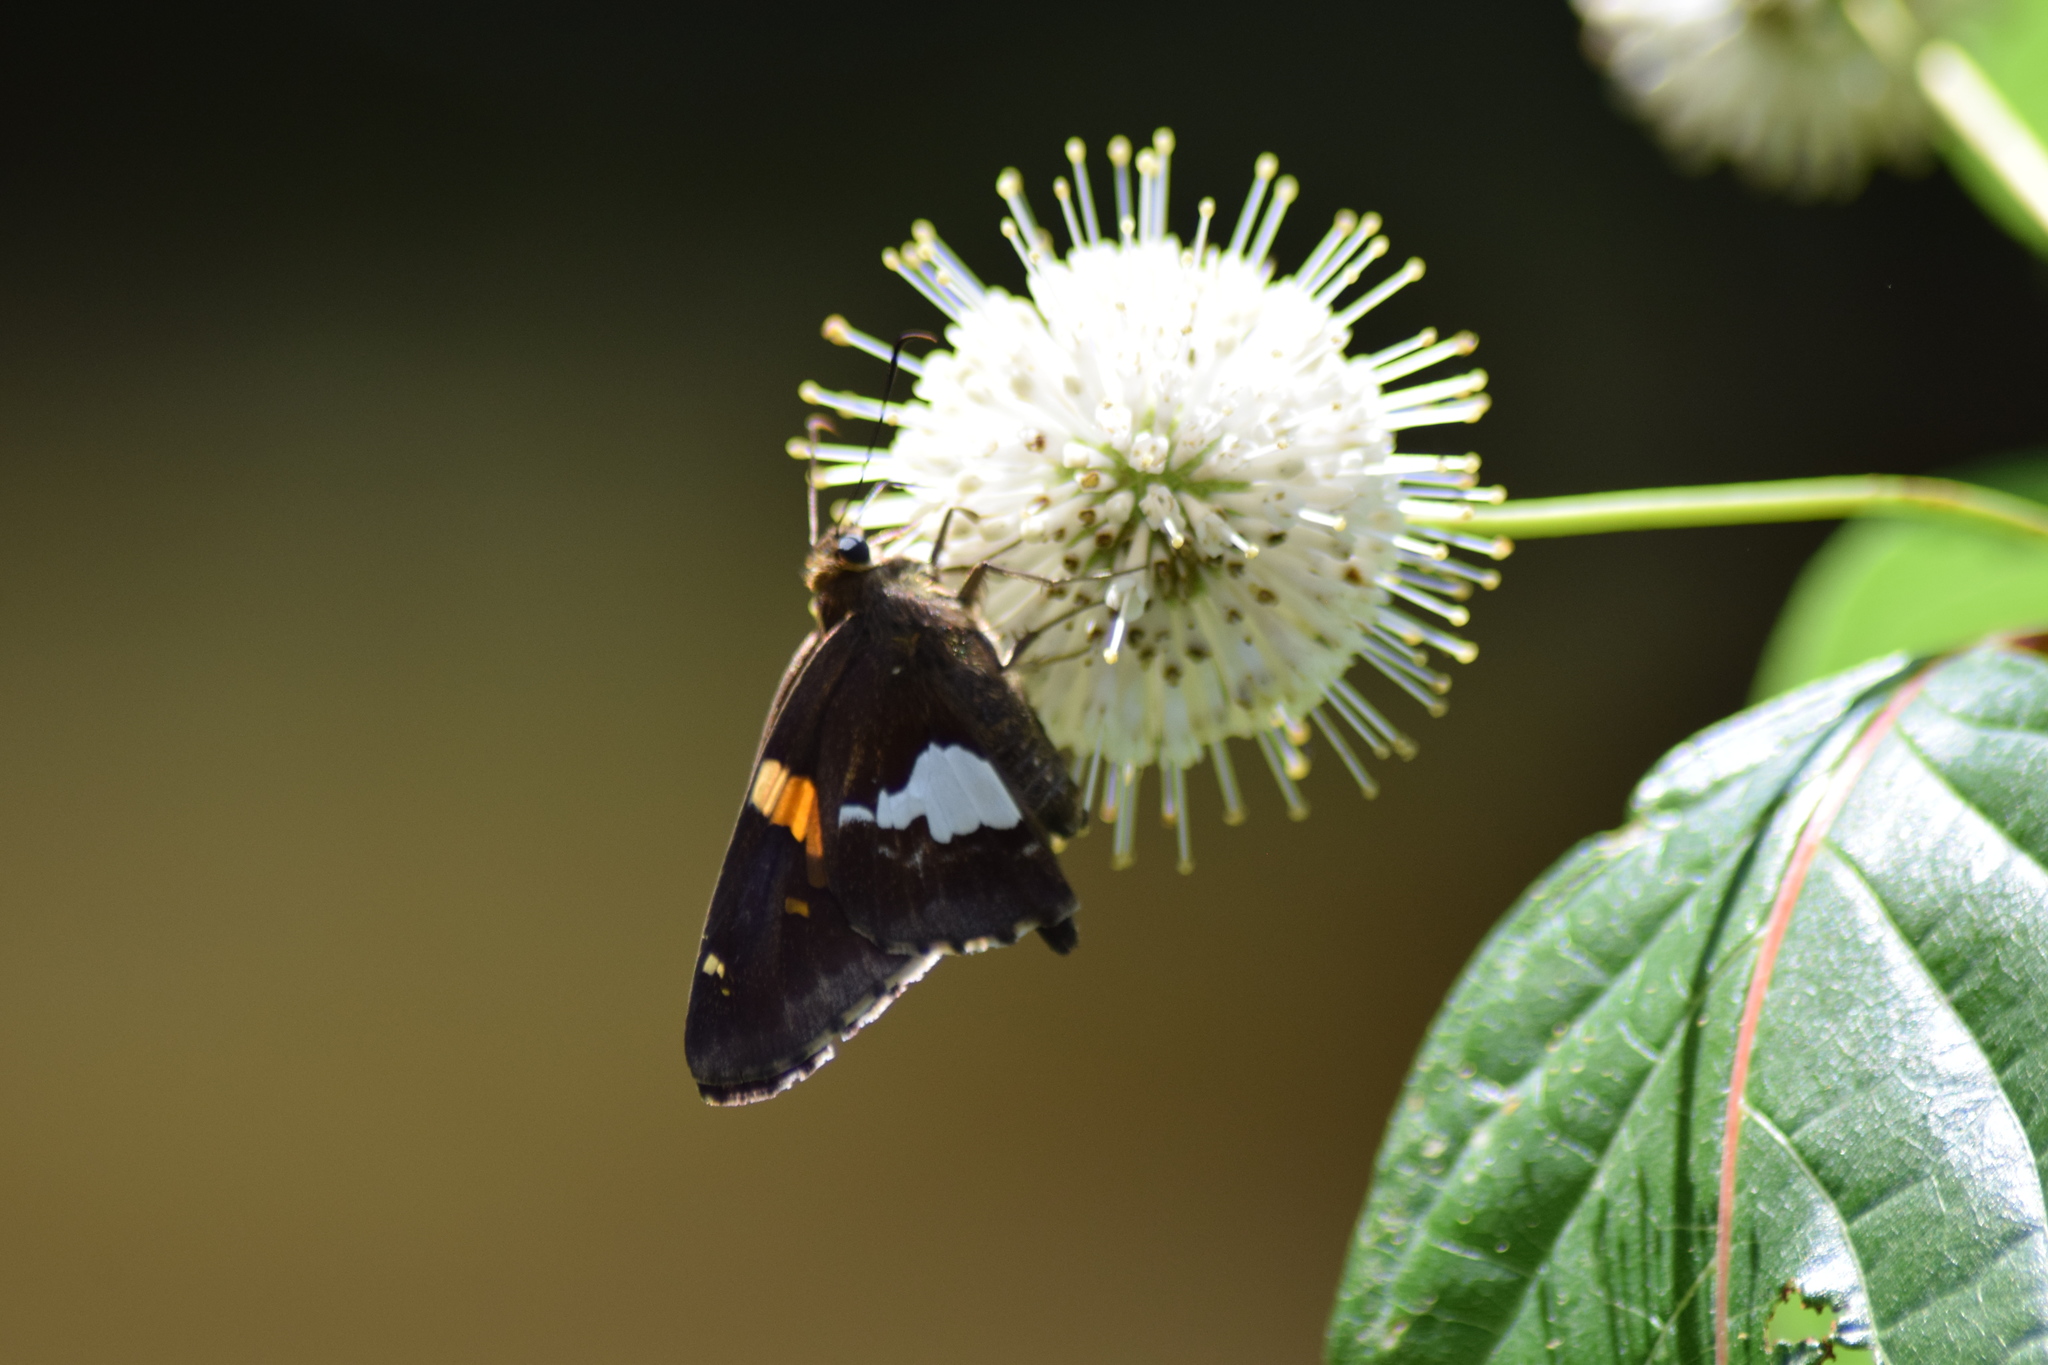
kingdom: Animalia
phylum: Arthropoda
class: Insecta
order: Lepidoptera
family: Hesperiidae
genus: Epargyreus
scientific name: Epargyreus clarus
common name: Silver-spotted skipper
